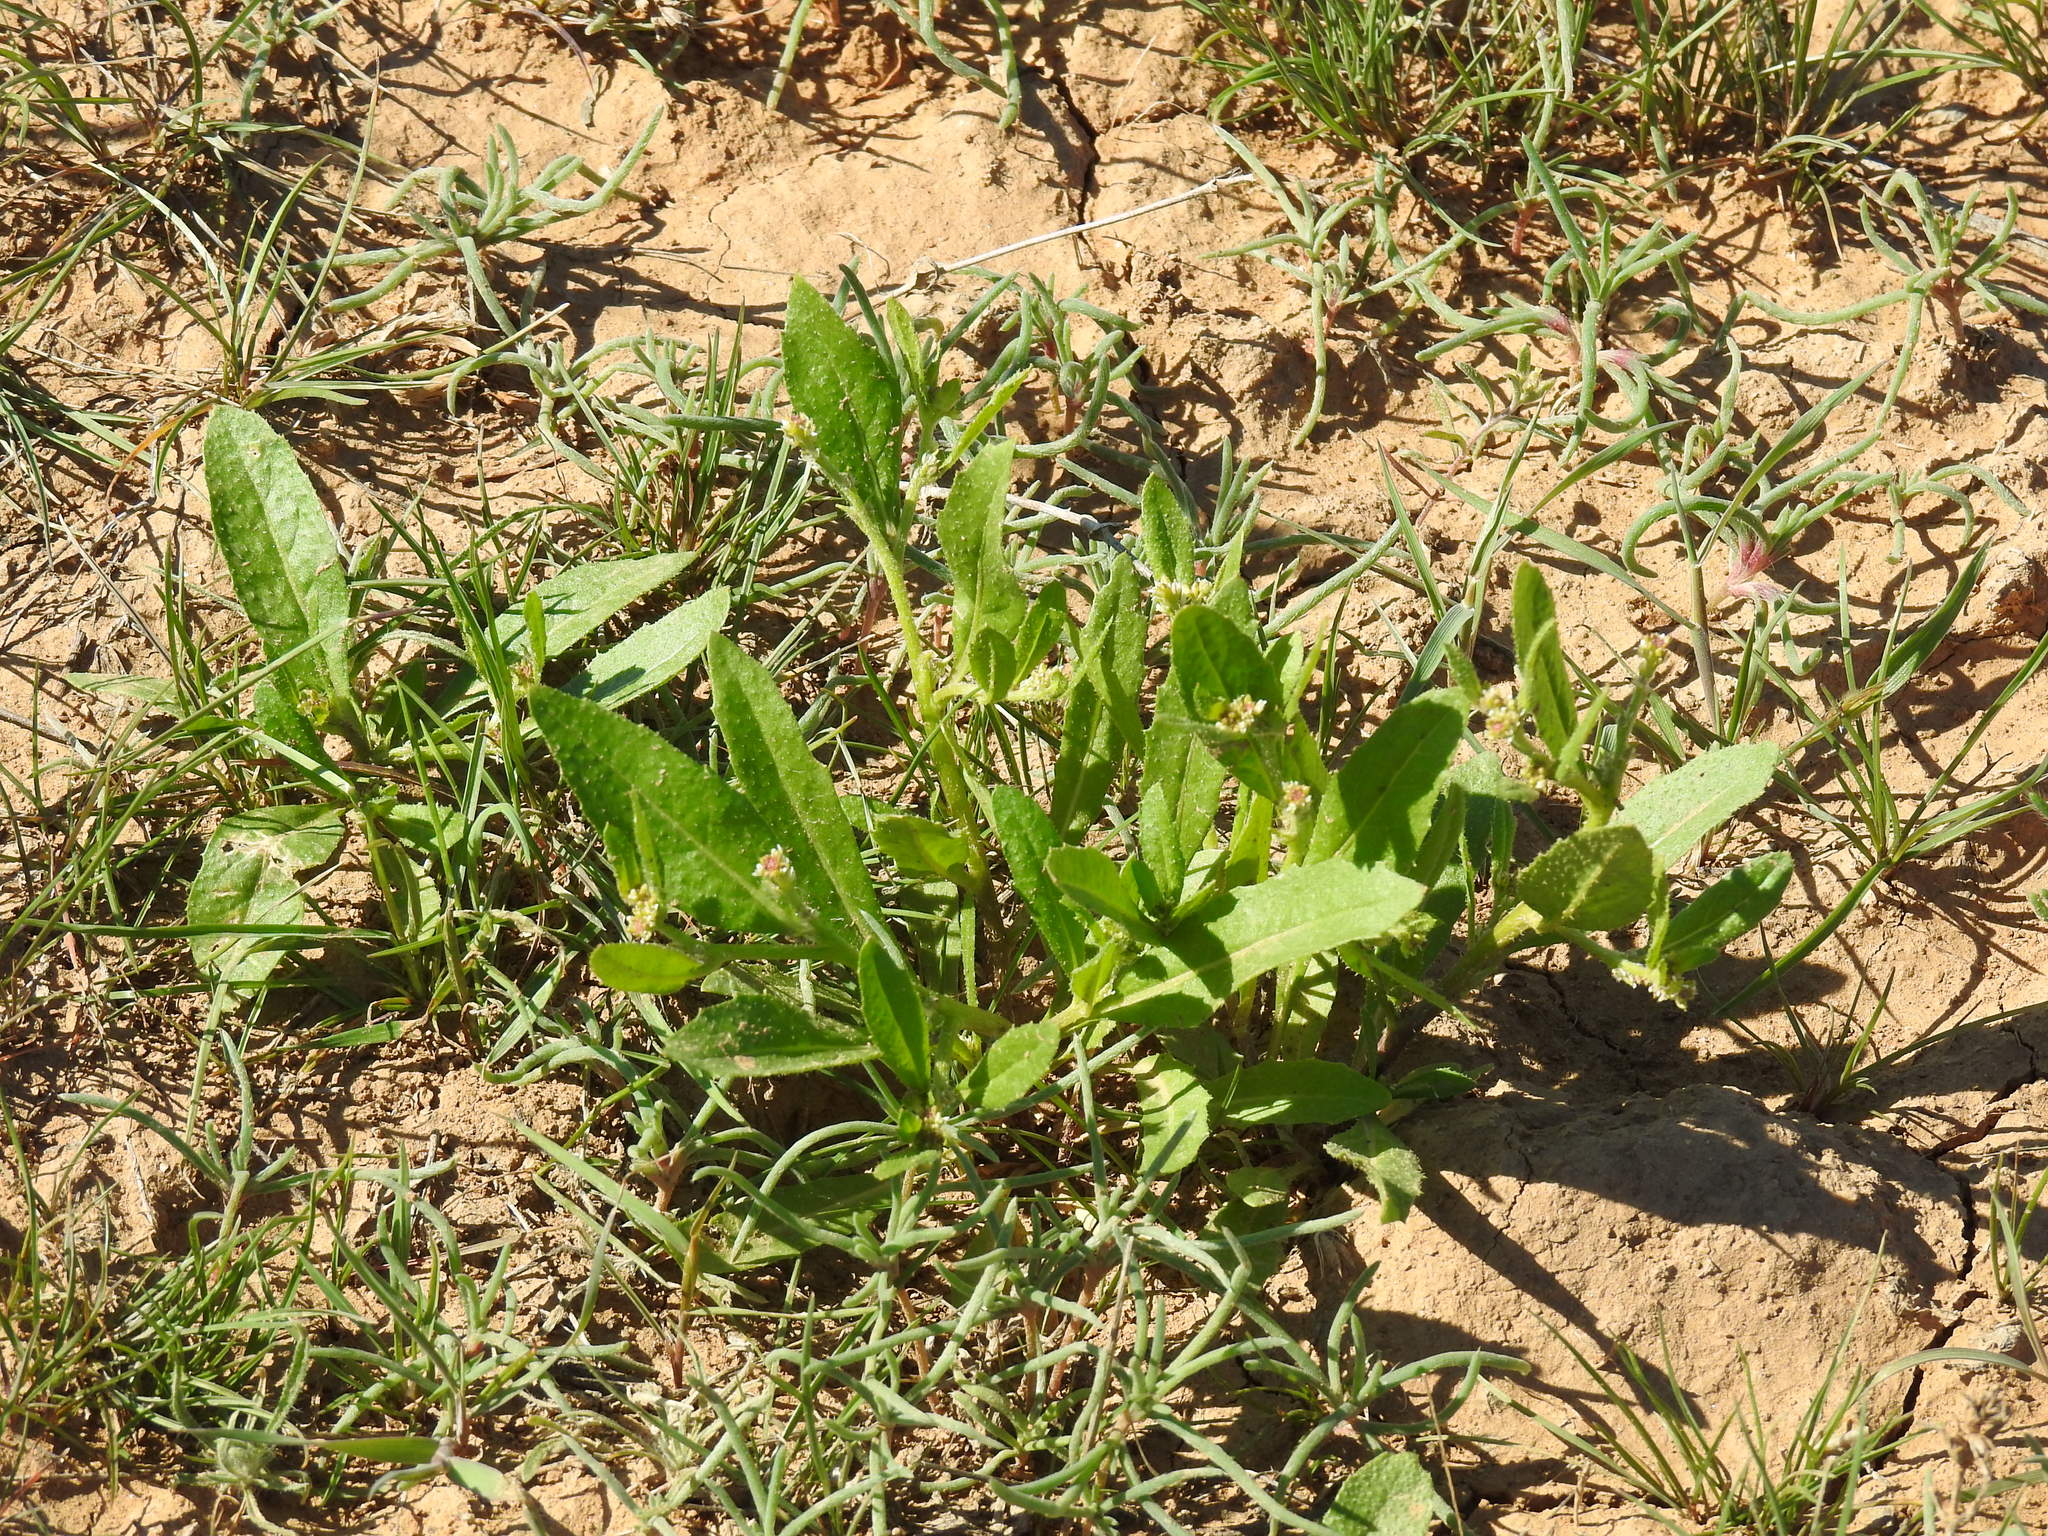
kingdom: Plantae
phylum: Tracheophyta
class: Magnoliopsida
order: Brassicales
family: Brassicaceae
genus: Euclidium
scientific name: Euclidium syriacum
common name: Syrian mustard
